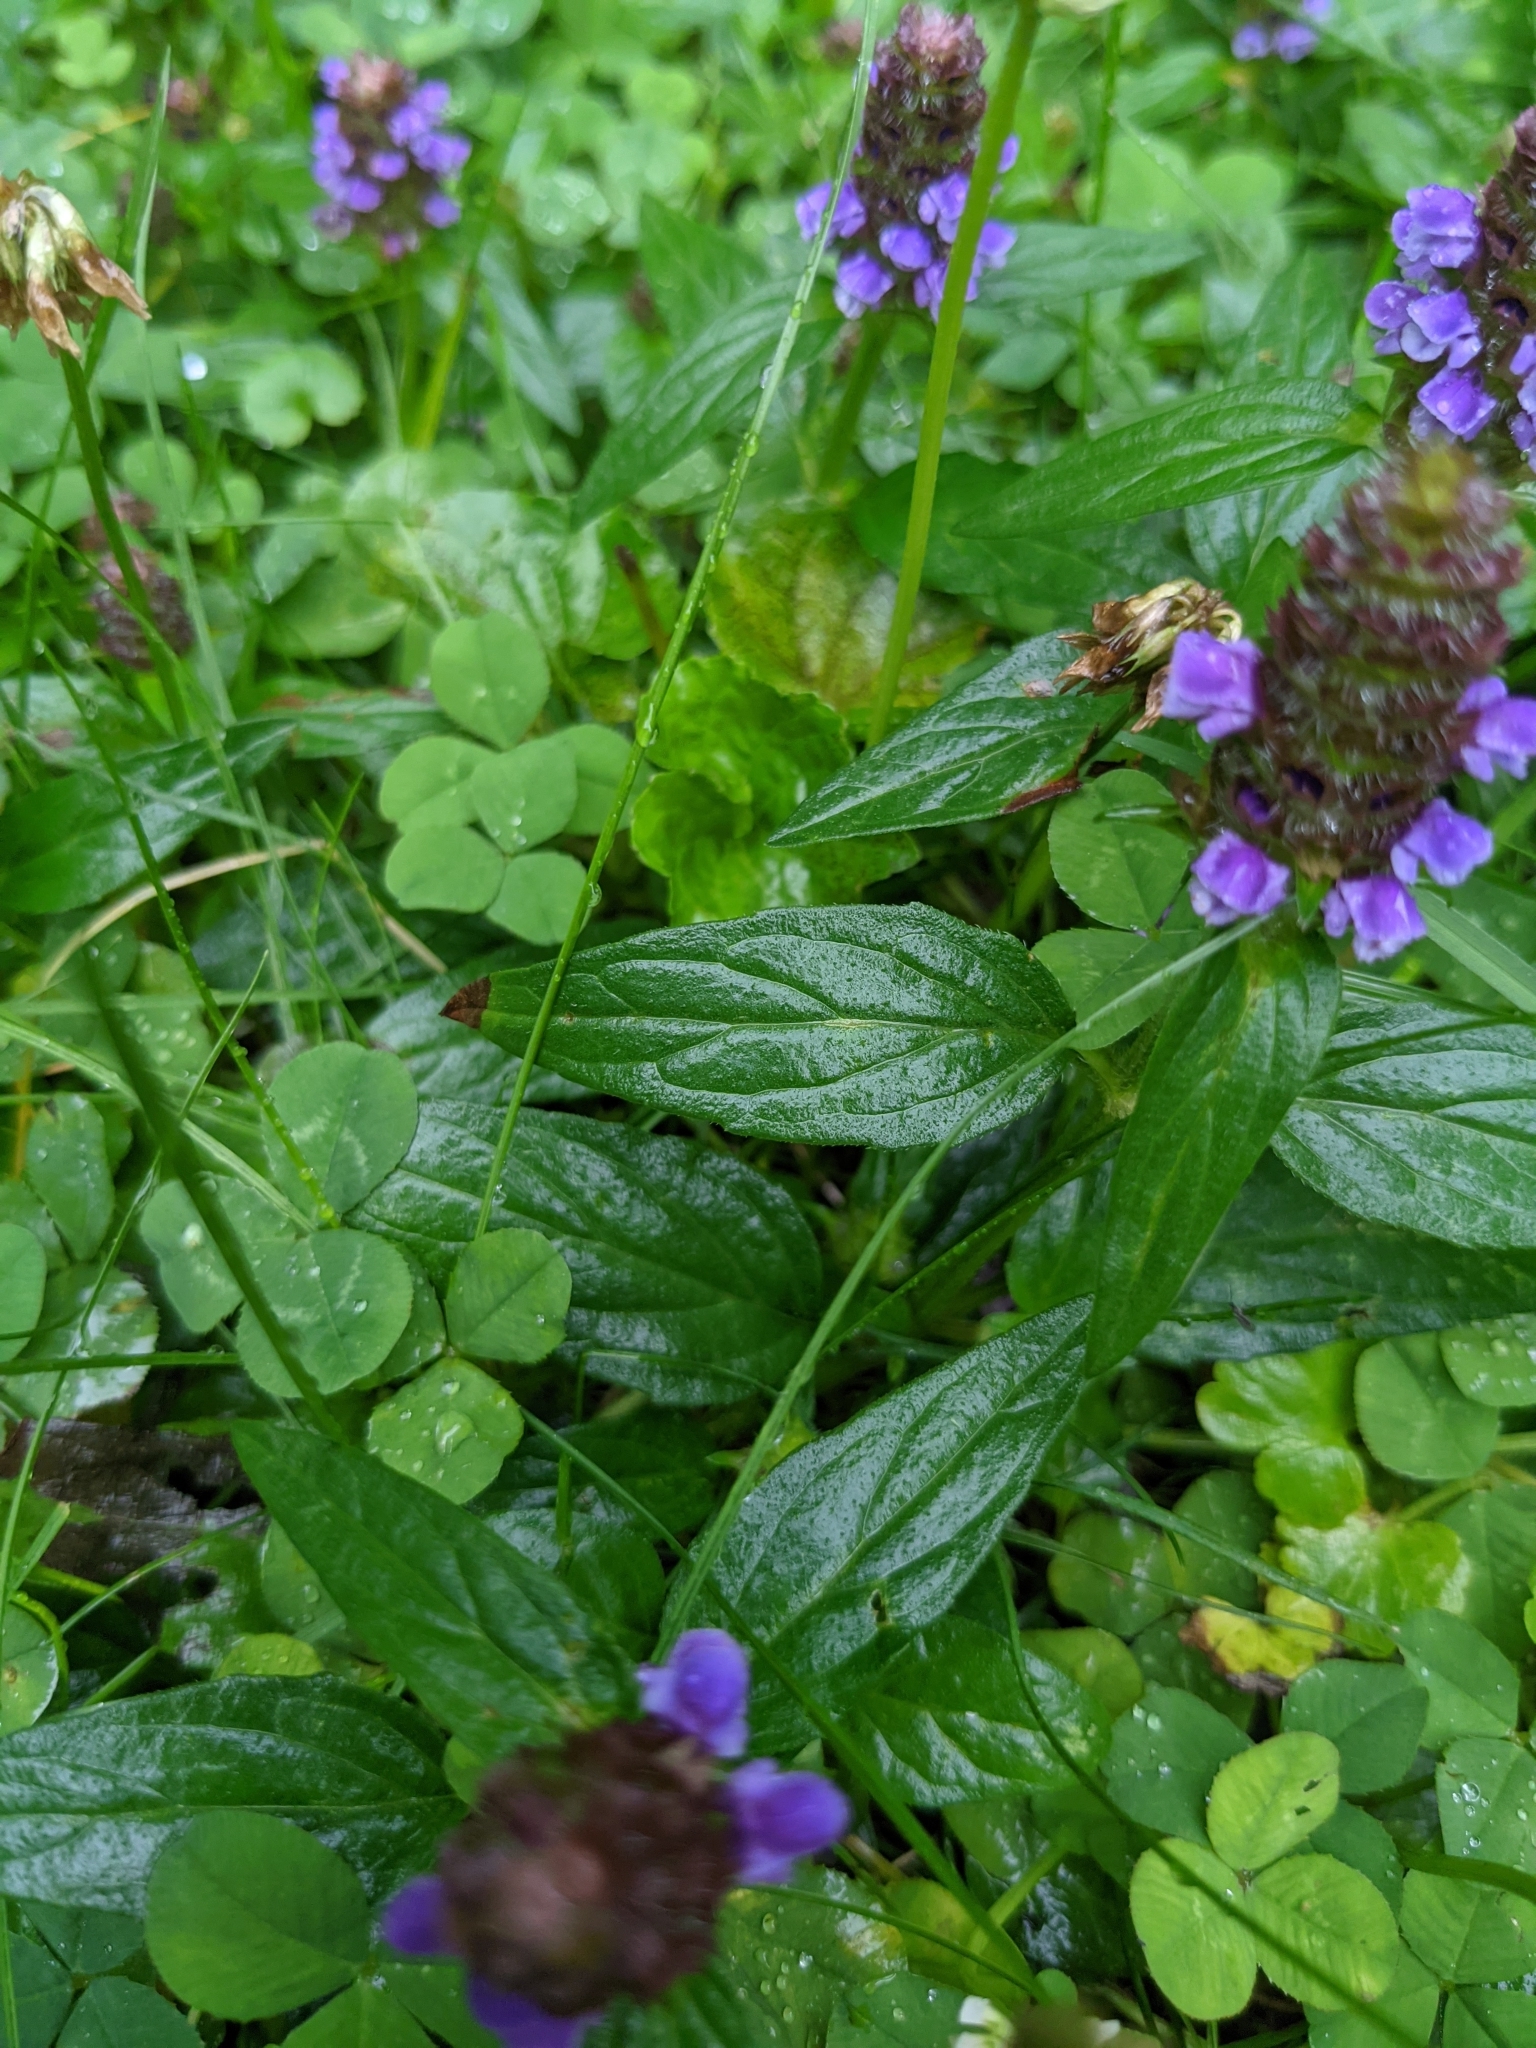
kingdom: Plantae
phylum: Tracheophyta
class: Magnoliopsida
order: Lamiales
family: Lamiaceae
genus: Prunella
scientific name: Prunella vulgaris
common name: Heal-all
